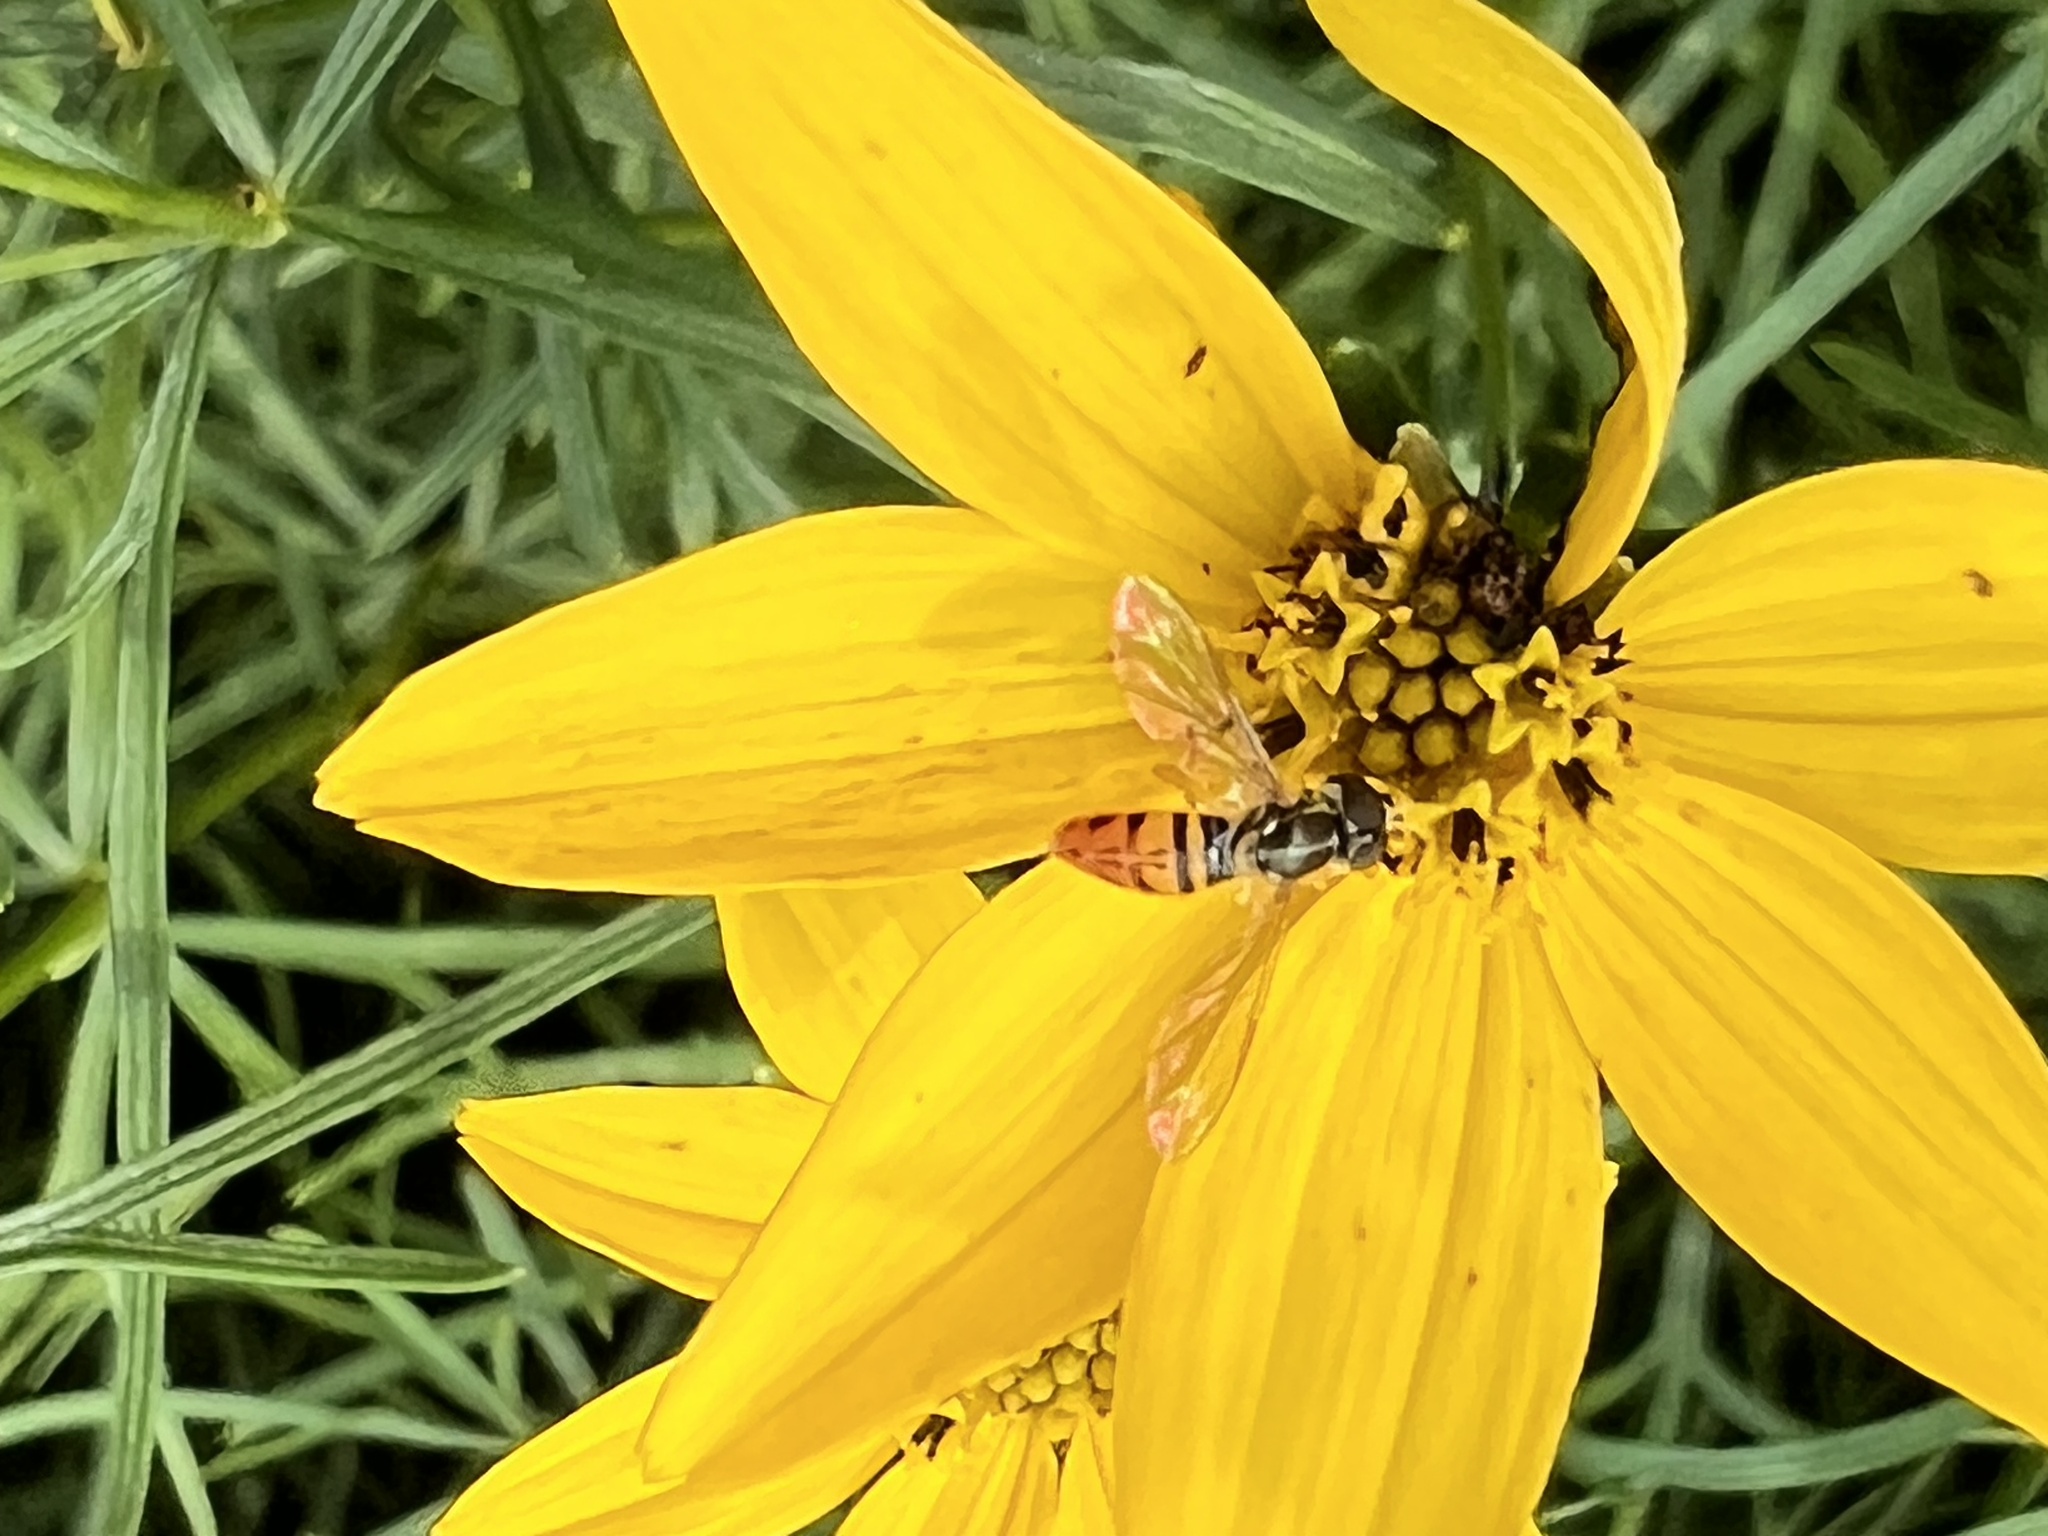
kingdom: Animalia
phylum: Arthropoda
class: Insecta
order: Diptera
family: Syrphidae
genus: Toxomerus
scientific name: Toxomerus marginatus
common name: Syrphid fly
